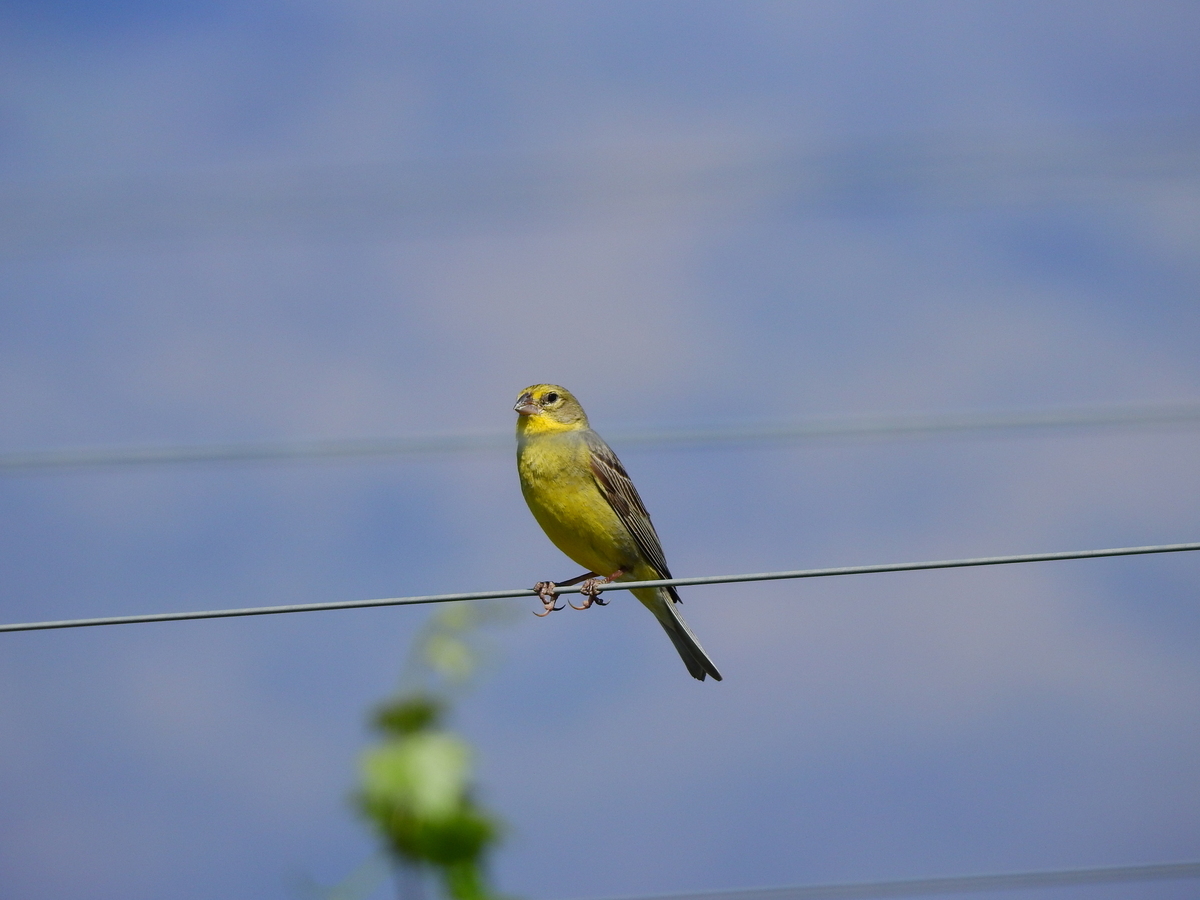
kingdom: Animalia
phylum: Chordata
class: Aves
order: Passeriformes
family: Thraupidae
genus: Sicalis
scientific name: Sicalis luteola
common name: Grassland yellow-finch
